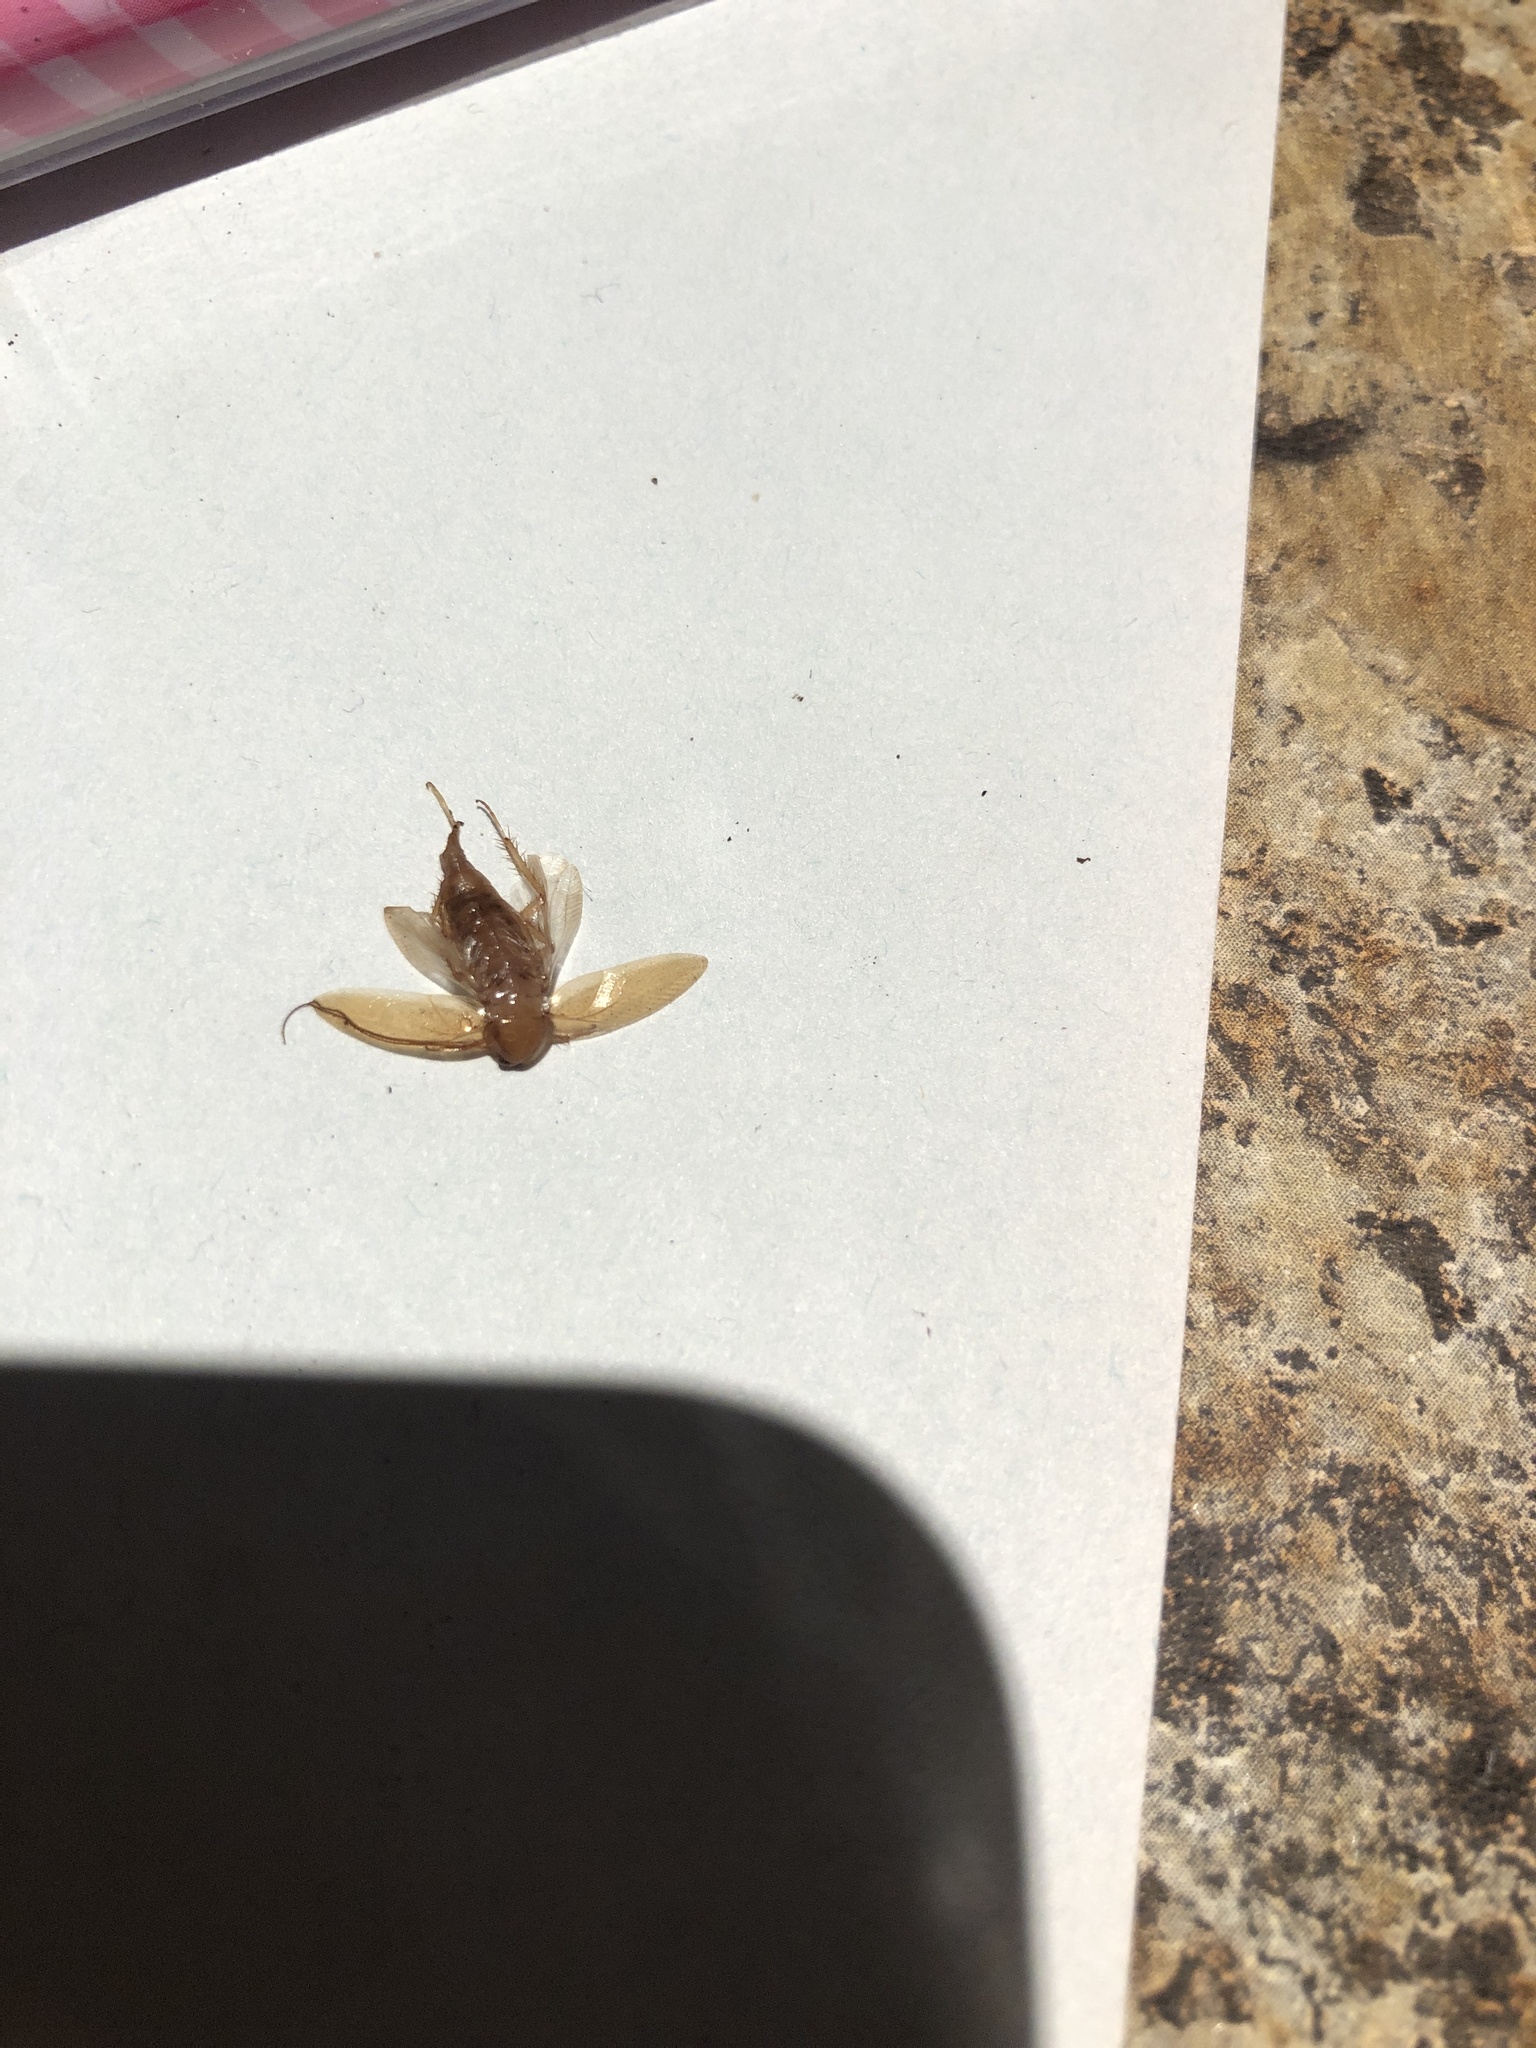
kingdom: Animalia
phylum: Arthropoda
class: Insecta
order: Blattodea
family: Ectobiidae
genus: Ectobius
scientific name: Ectobius pallidus
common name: Tawny cockroach
